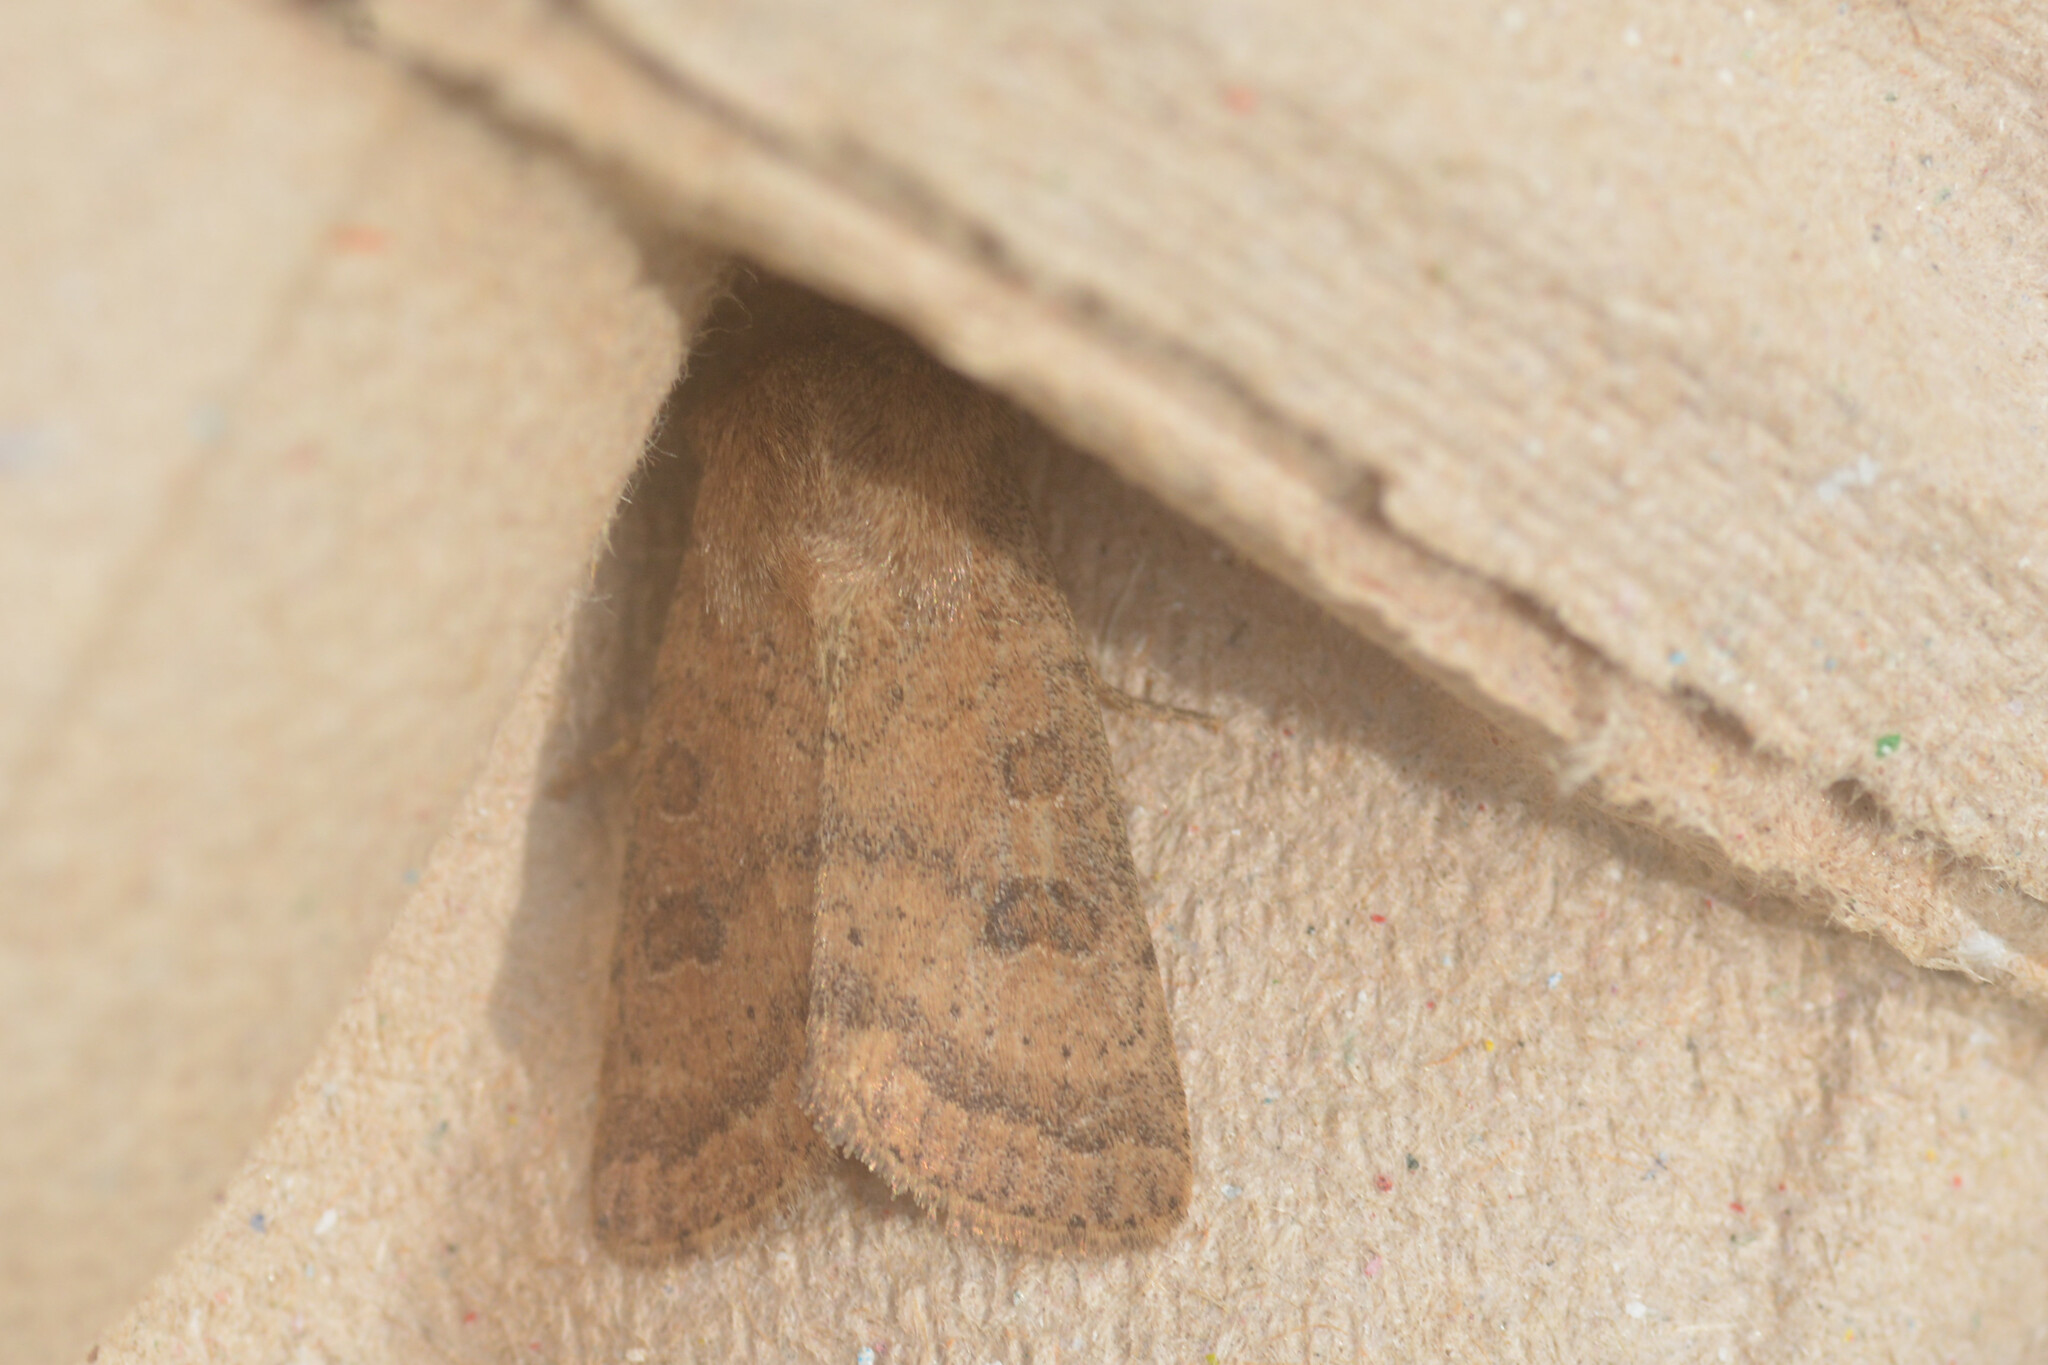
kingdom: Animalia
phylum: Arthropoda
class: Insecta
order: Lepidoptera
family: Noctuidae
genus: Hoplodrina
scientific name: Hoplodrina octogenaria
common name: Uncertain
